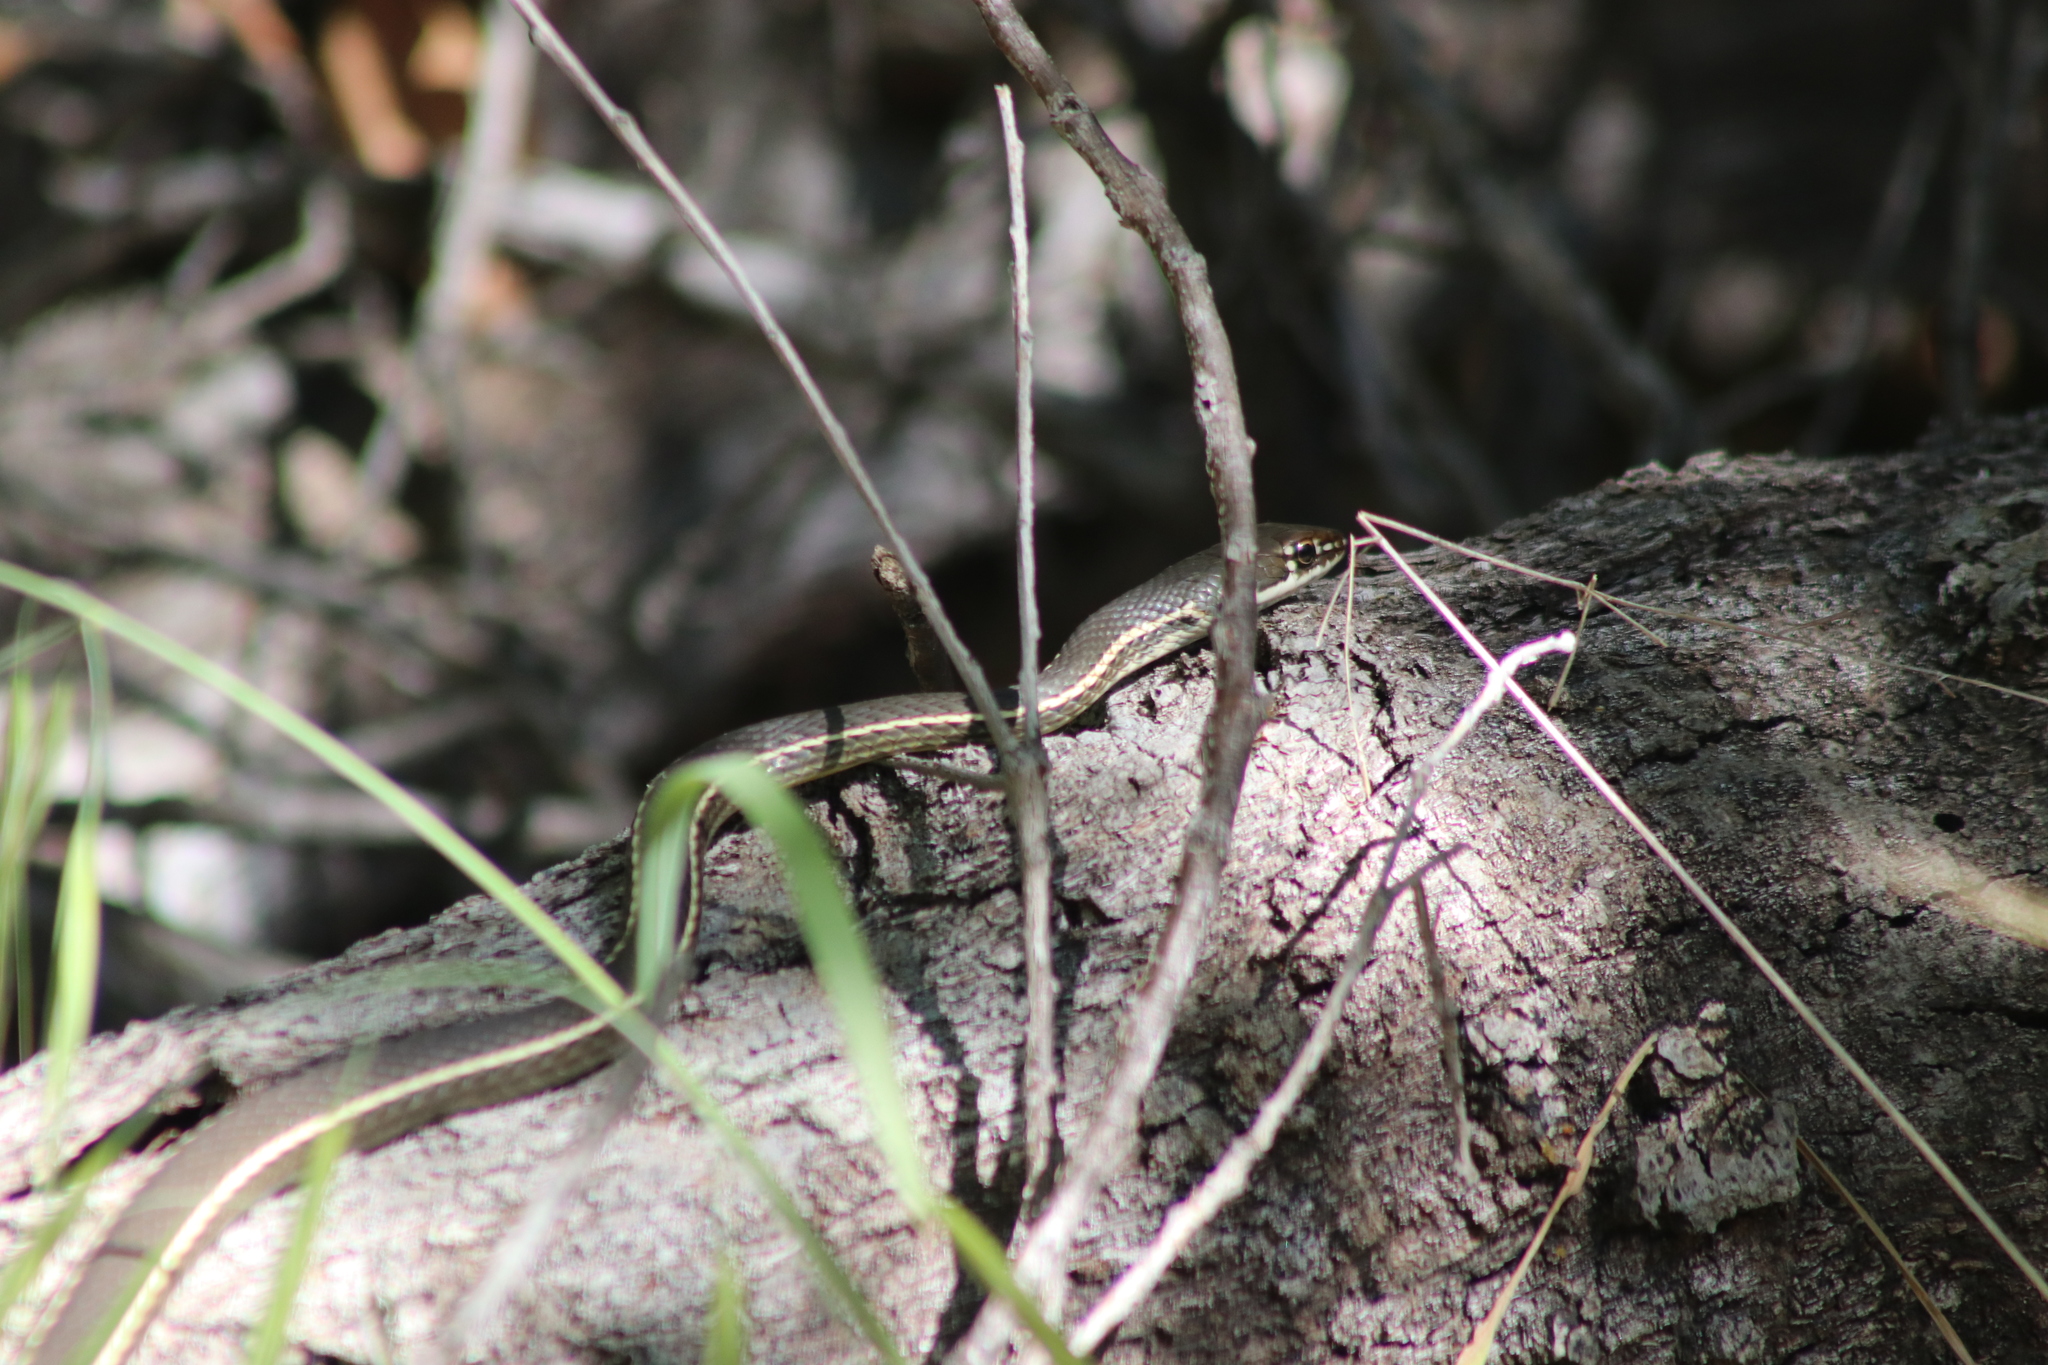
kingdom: Animalia
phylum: Chordata
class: Squamata
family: Colubridae
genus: Masticophis
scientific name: Masticophis lateralis
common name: Striped racer
